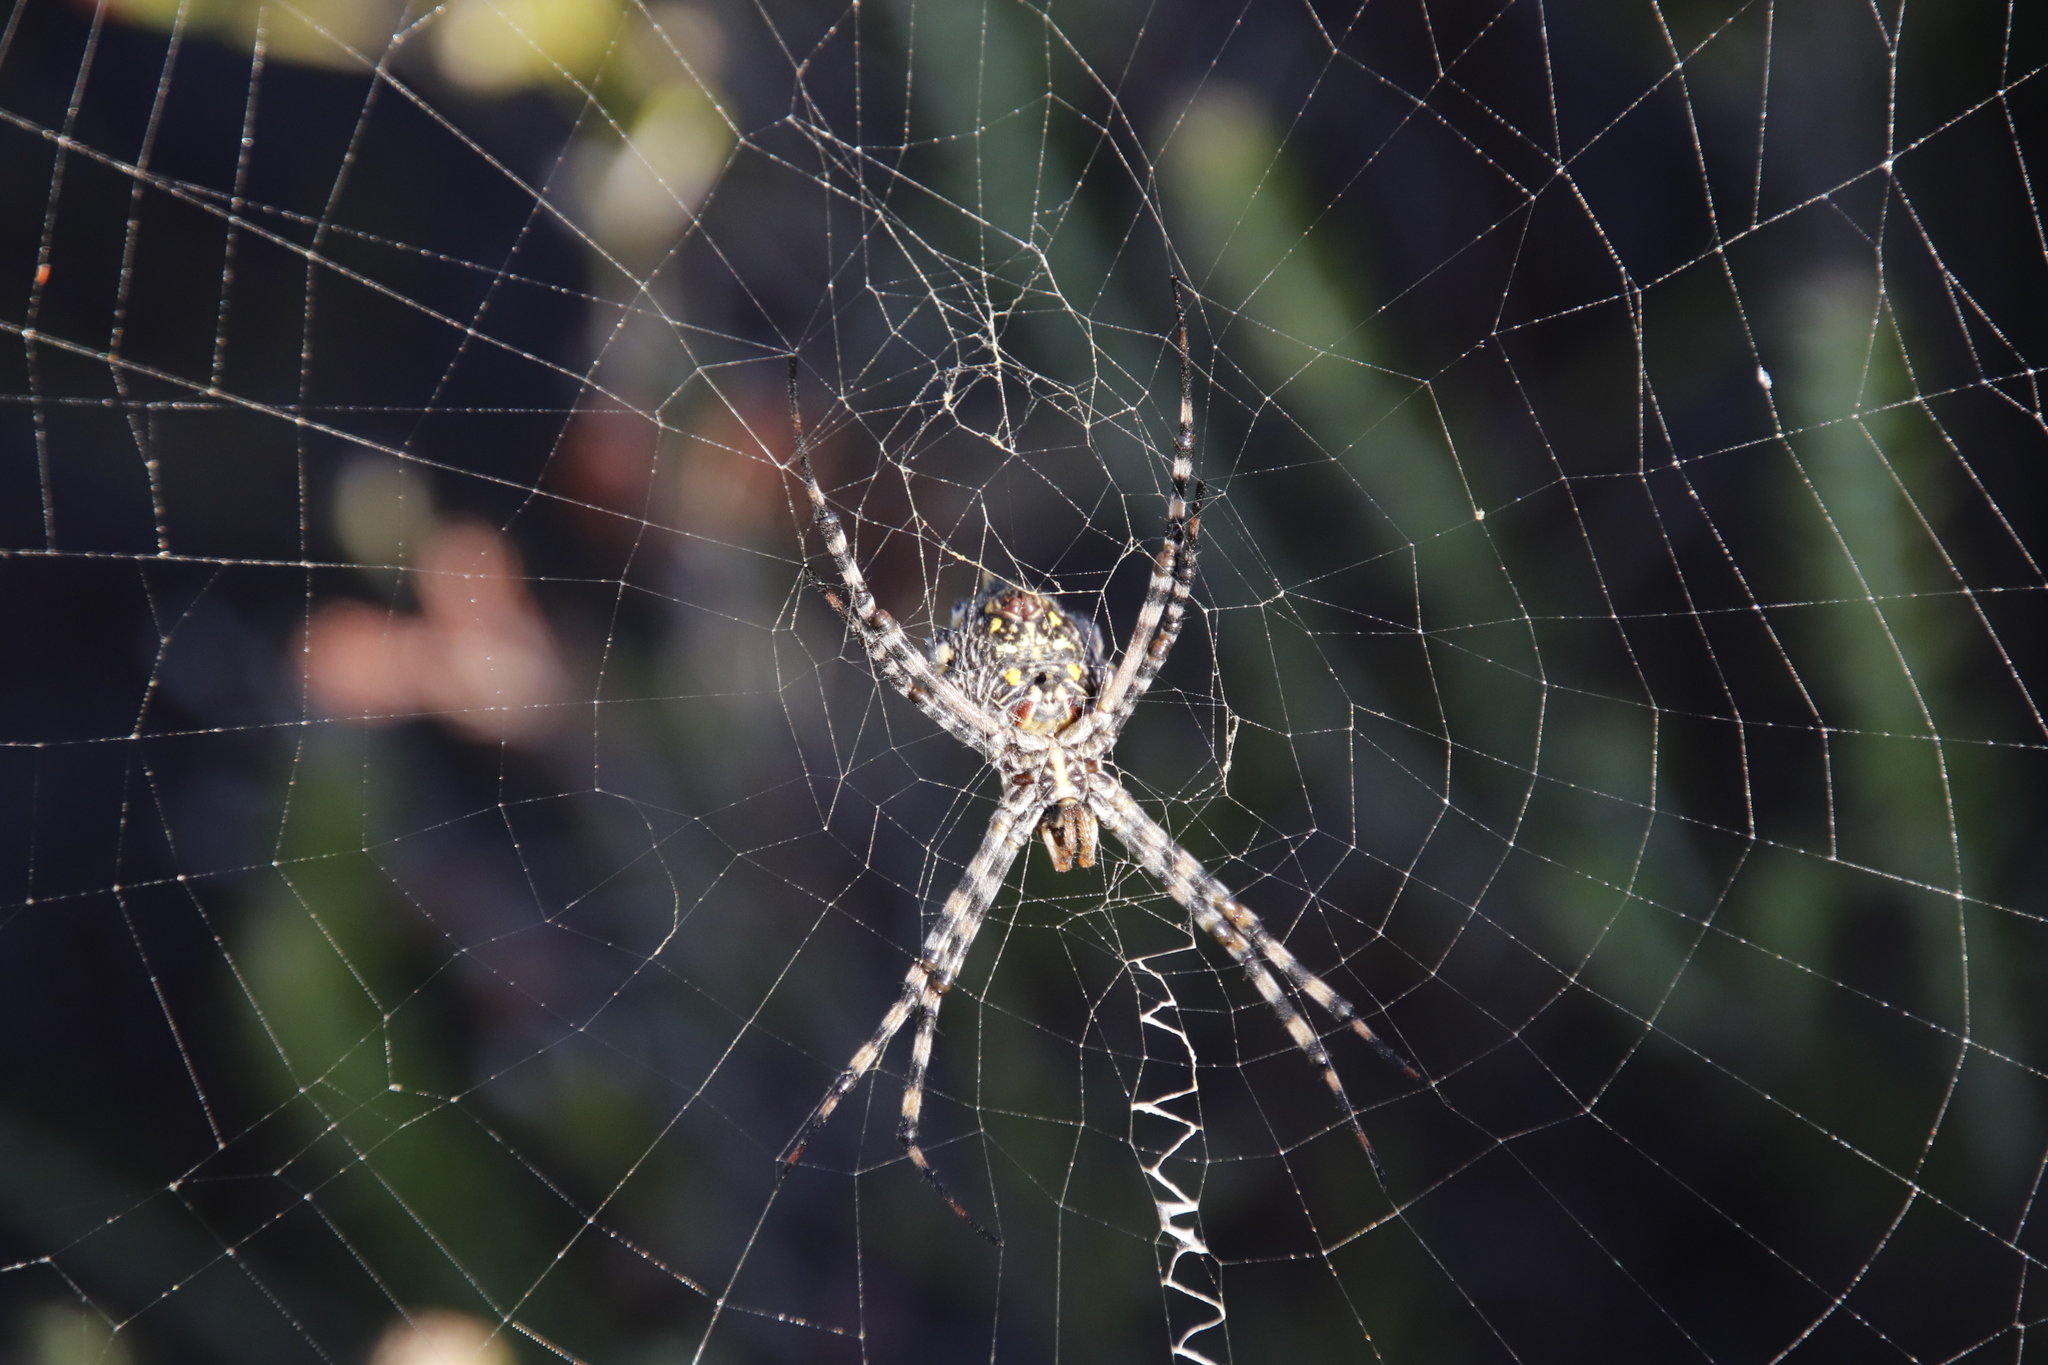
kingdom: Animalia
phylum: Arthropoda
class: Arachnida
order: Araneae
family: Araneidae
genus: Argiope
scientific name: Argiope australis
